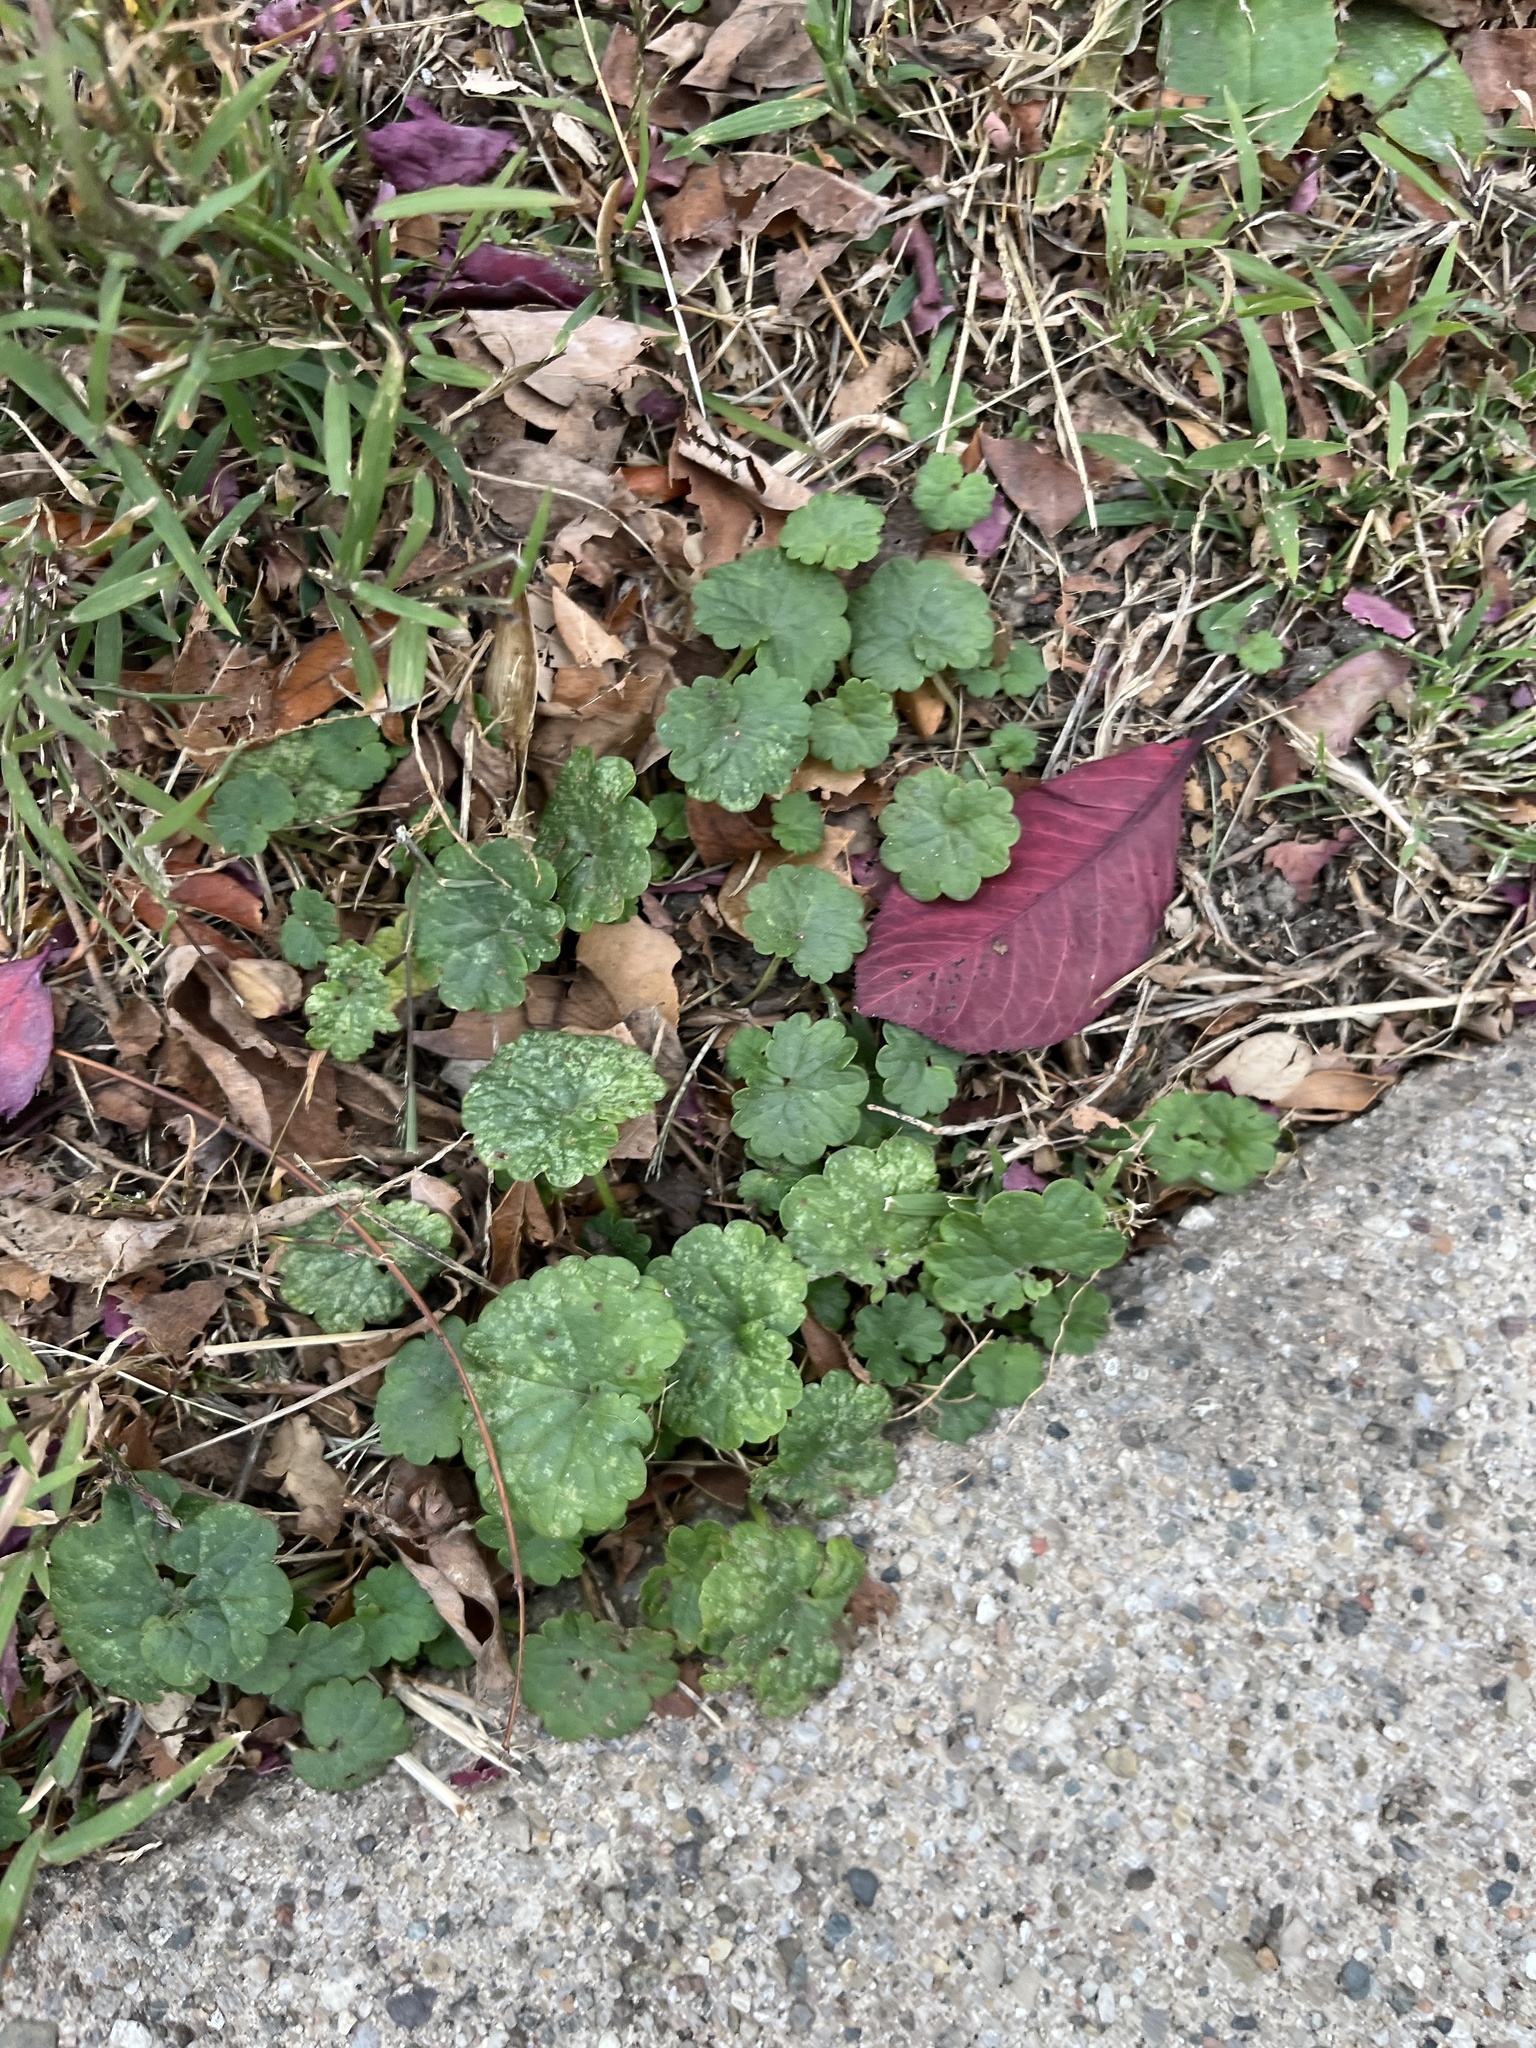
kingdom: Plantae
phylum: Tracheophyta
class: Magnoliopsida
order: Lamiales
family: Lamiaceae
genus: Glechoma
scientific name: Glechoma hederacea
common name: Ground ivy
